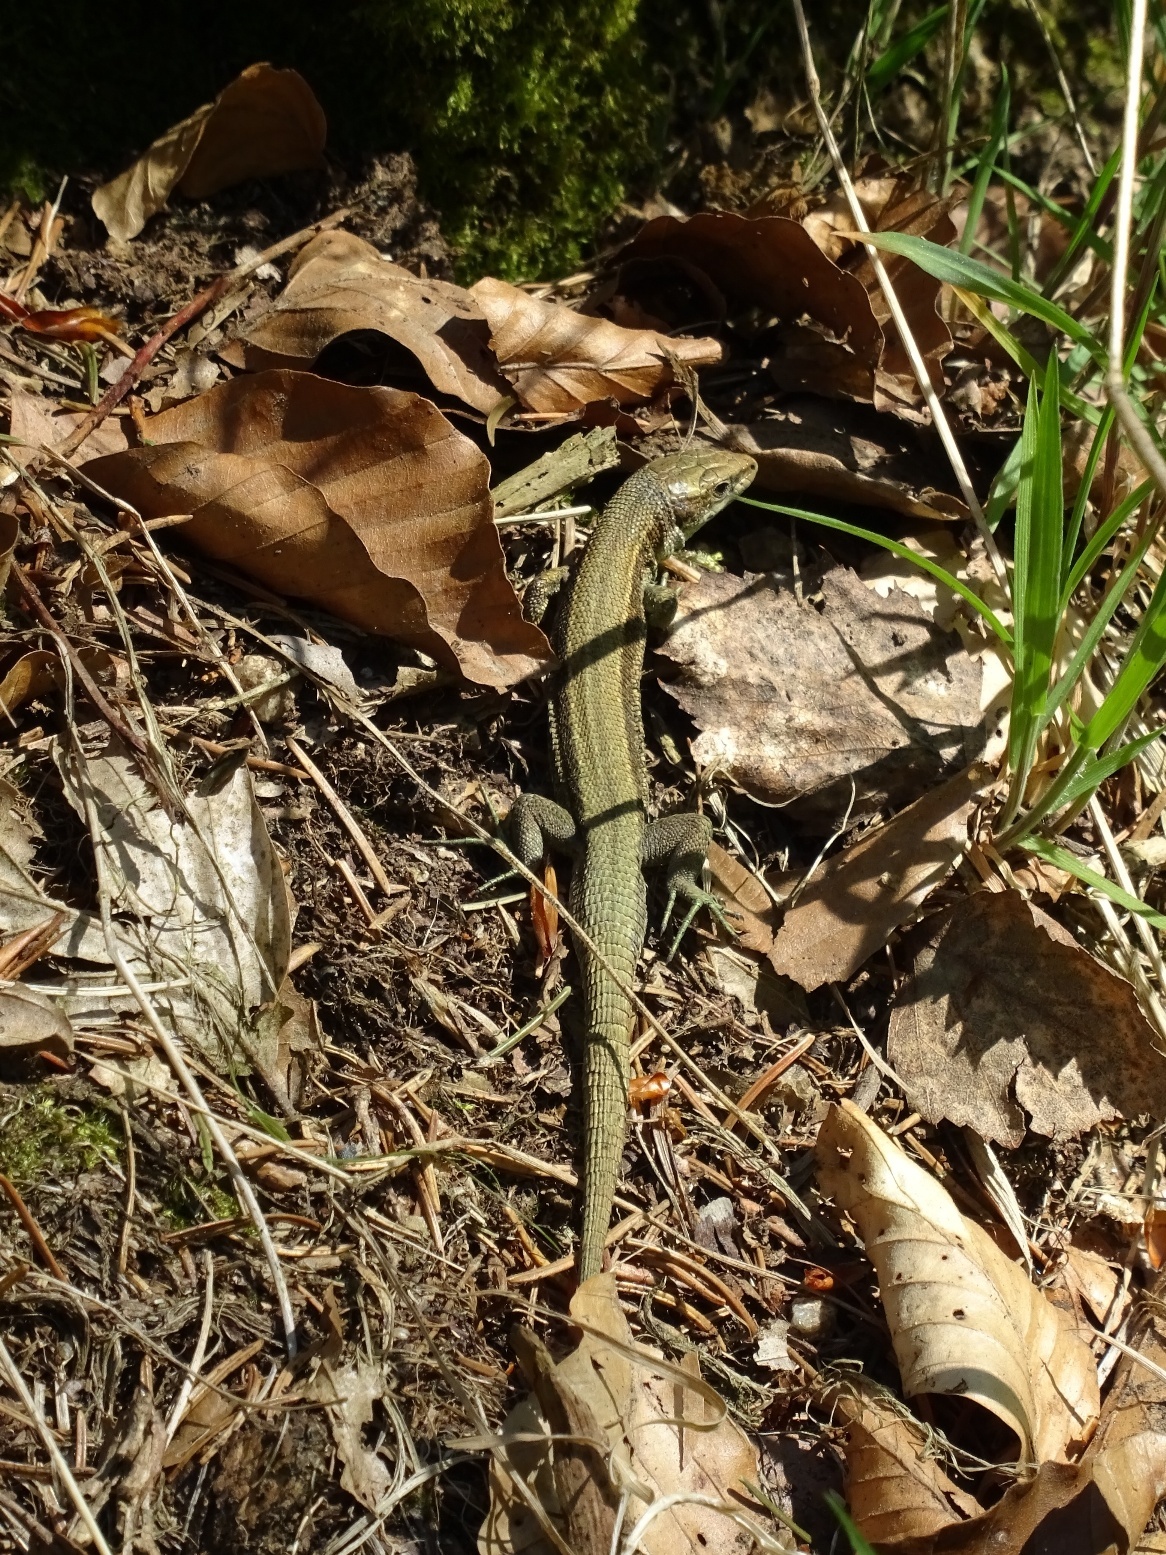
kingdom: Animalia
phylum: Chordata
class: Squamata
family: Lacertidae
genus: Zootoca
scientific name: Zootoca vivipara
